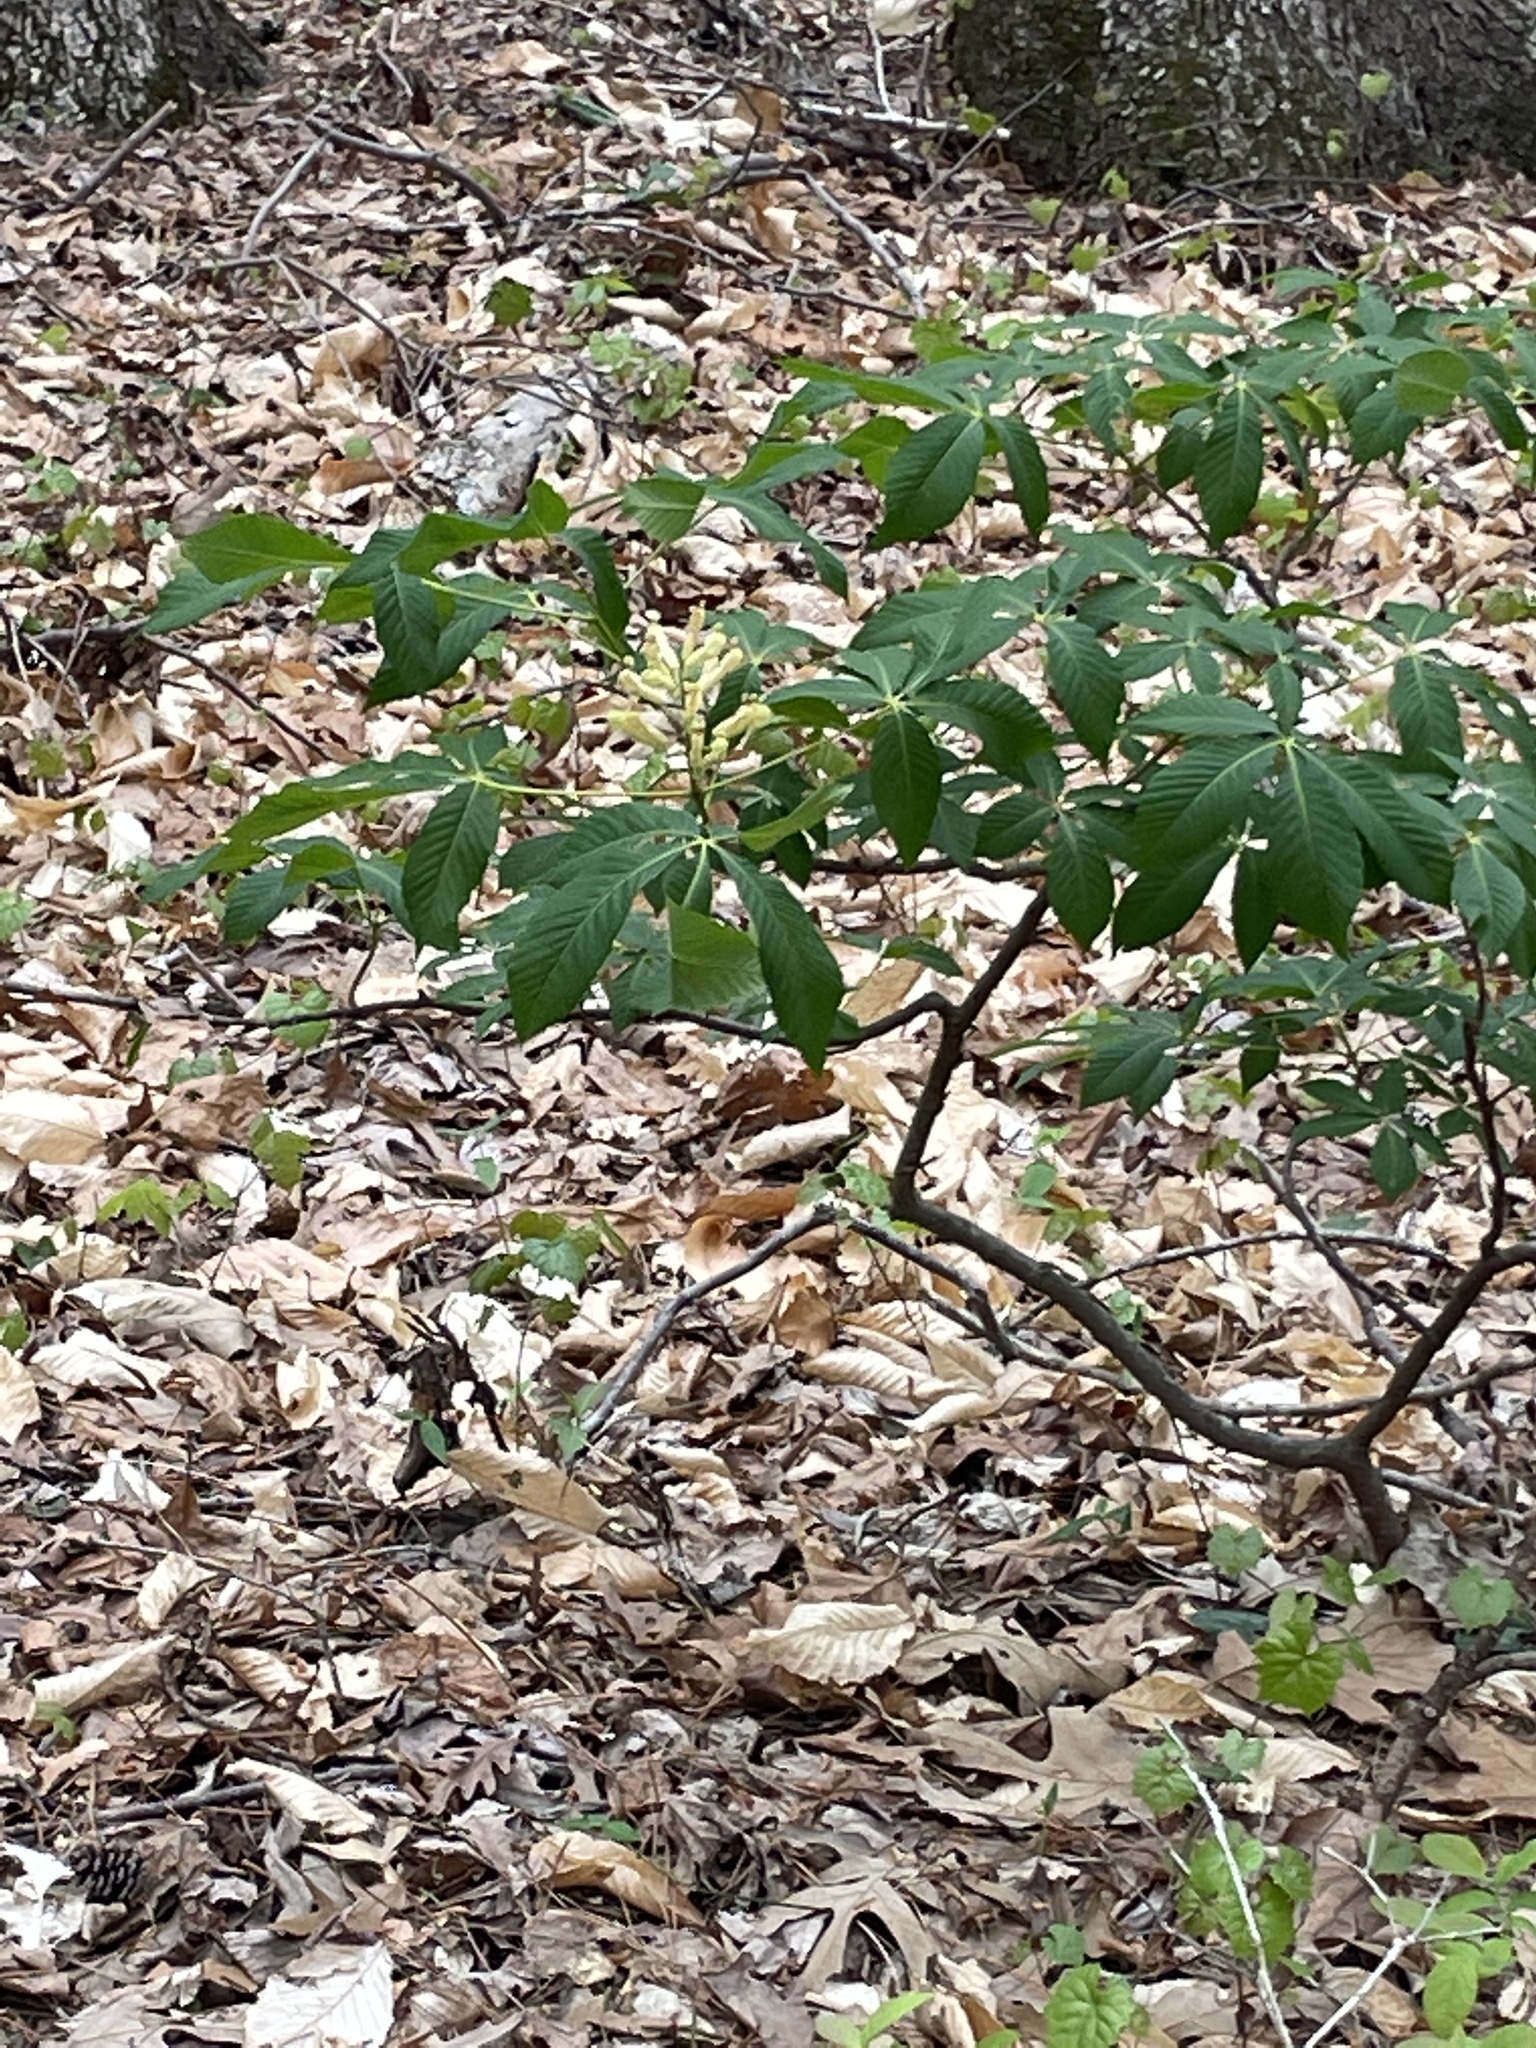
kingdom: Plantae
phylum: Tracheophyta
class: Magnoliopsida
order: Sapindales
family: Sapindaceae
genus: Aesculus
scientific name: Aesculus sylvatica
